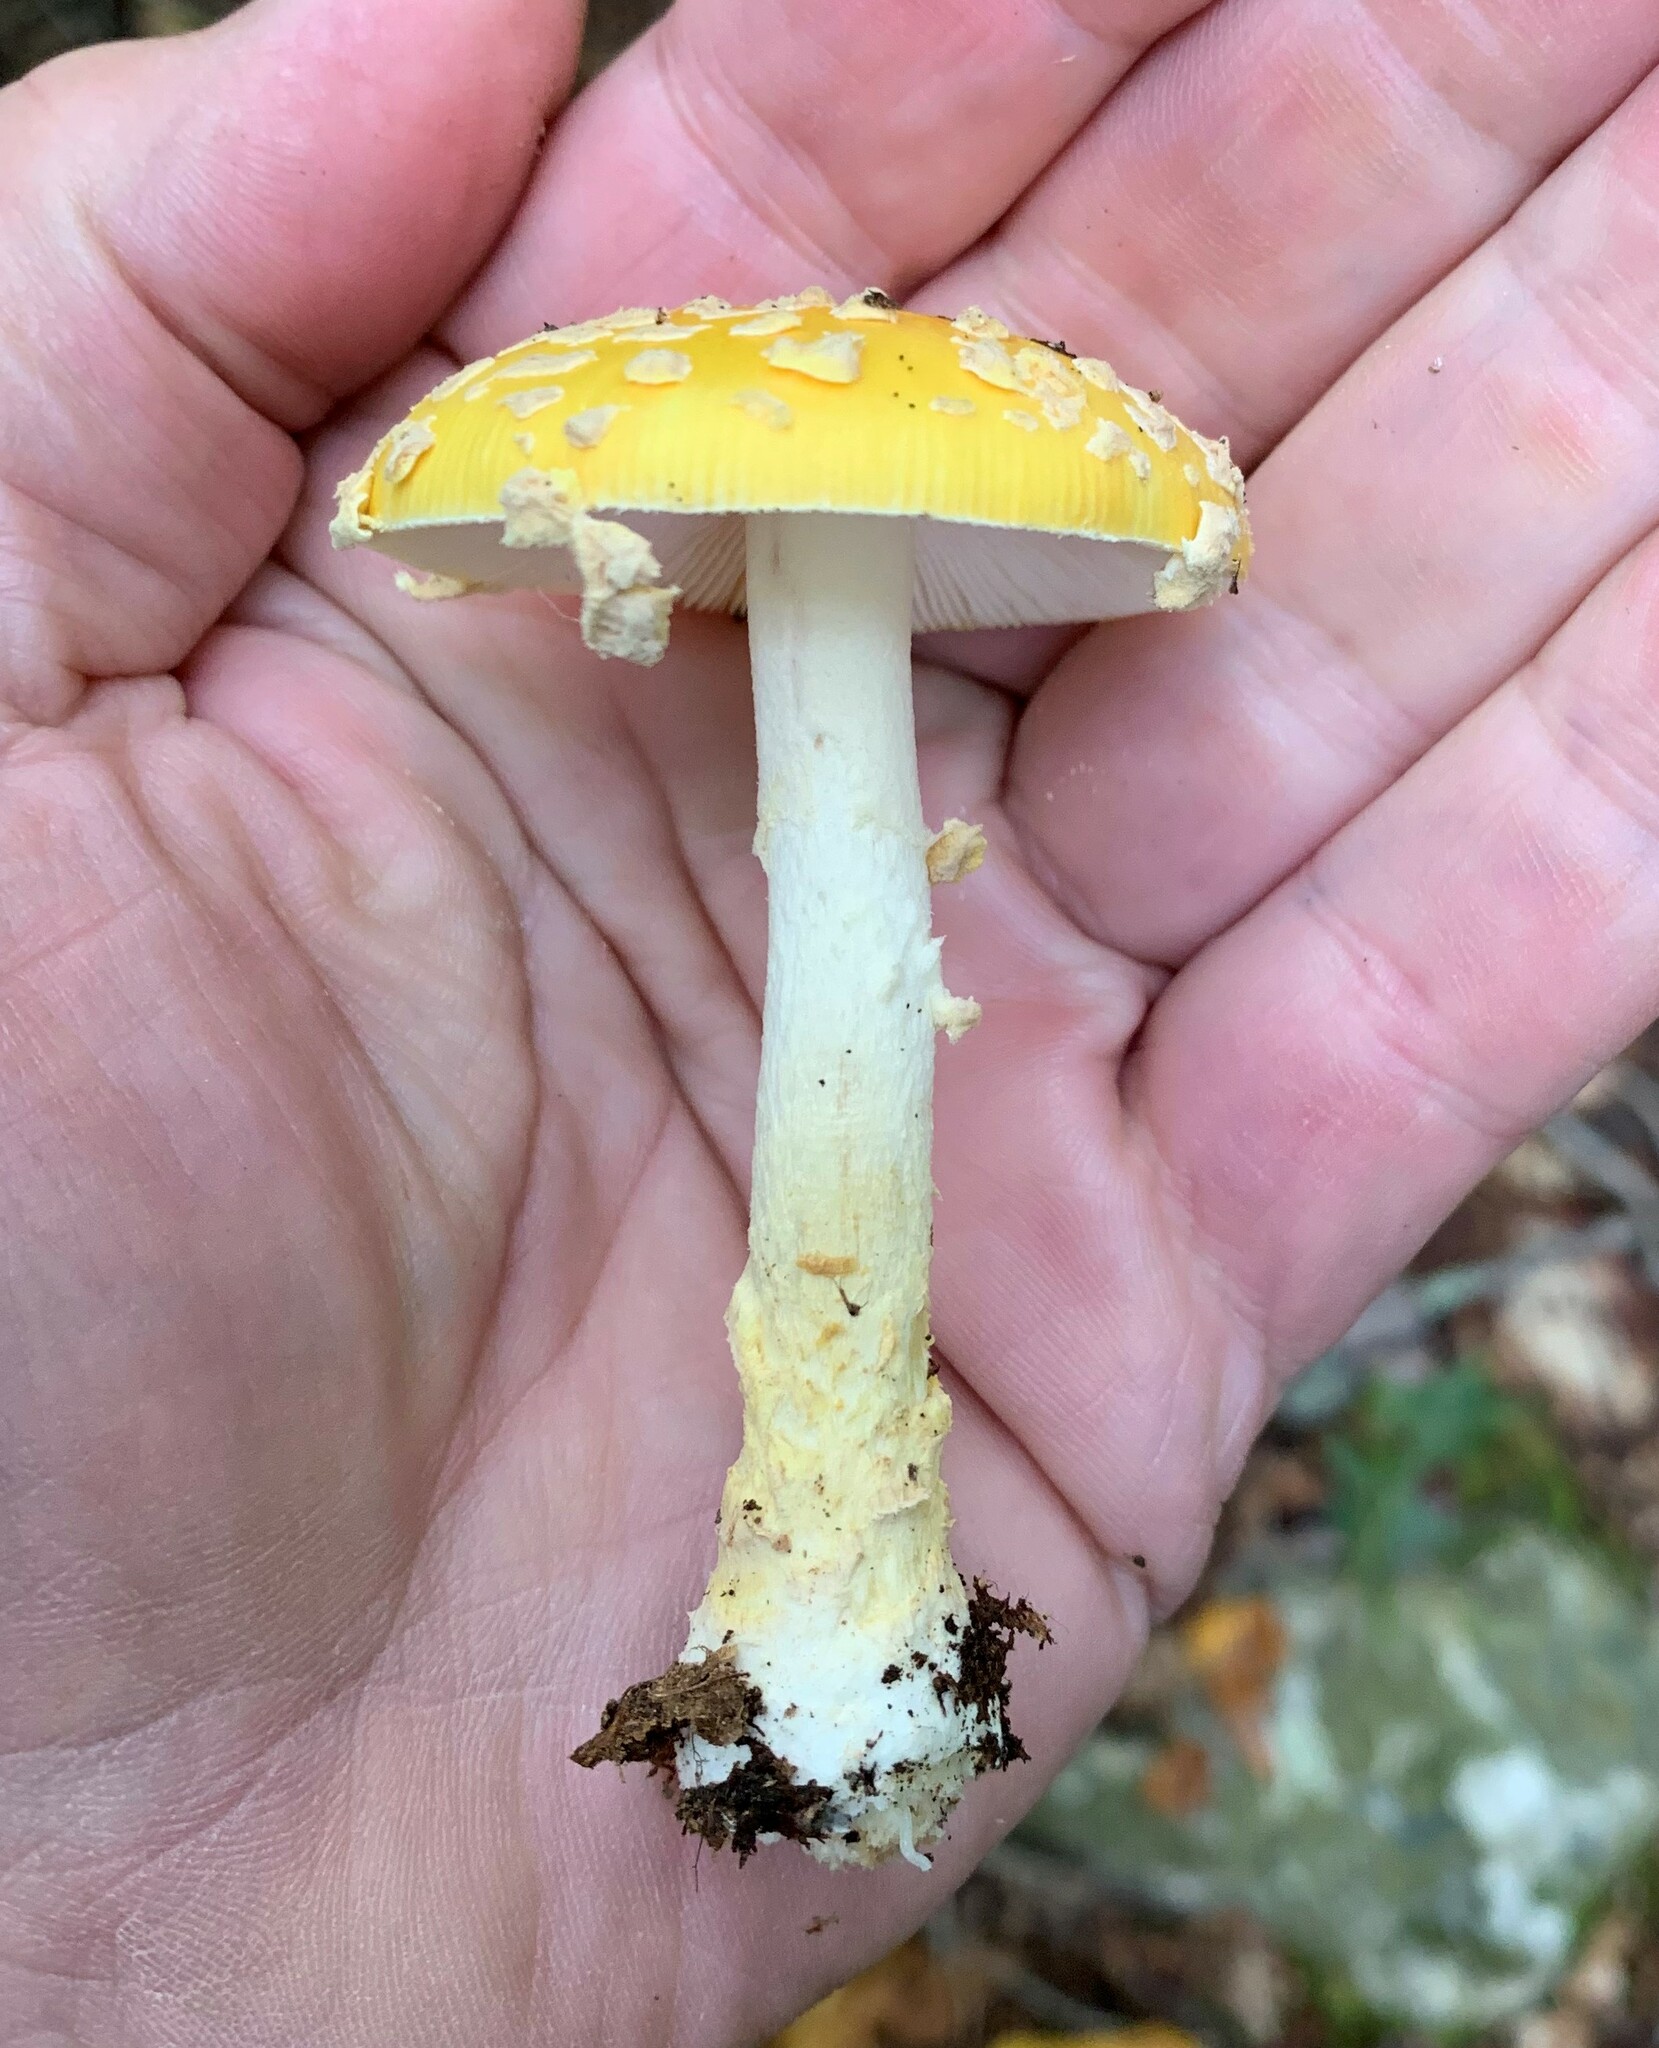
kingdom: Fungi
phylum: Basidiomycota
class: Agaricomycetes
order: Agaricales
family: Amanitaceae
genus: Amanita
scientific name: Amanita muscaria
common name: Fly agaric
